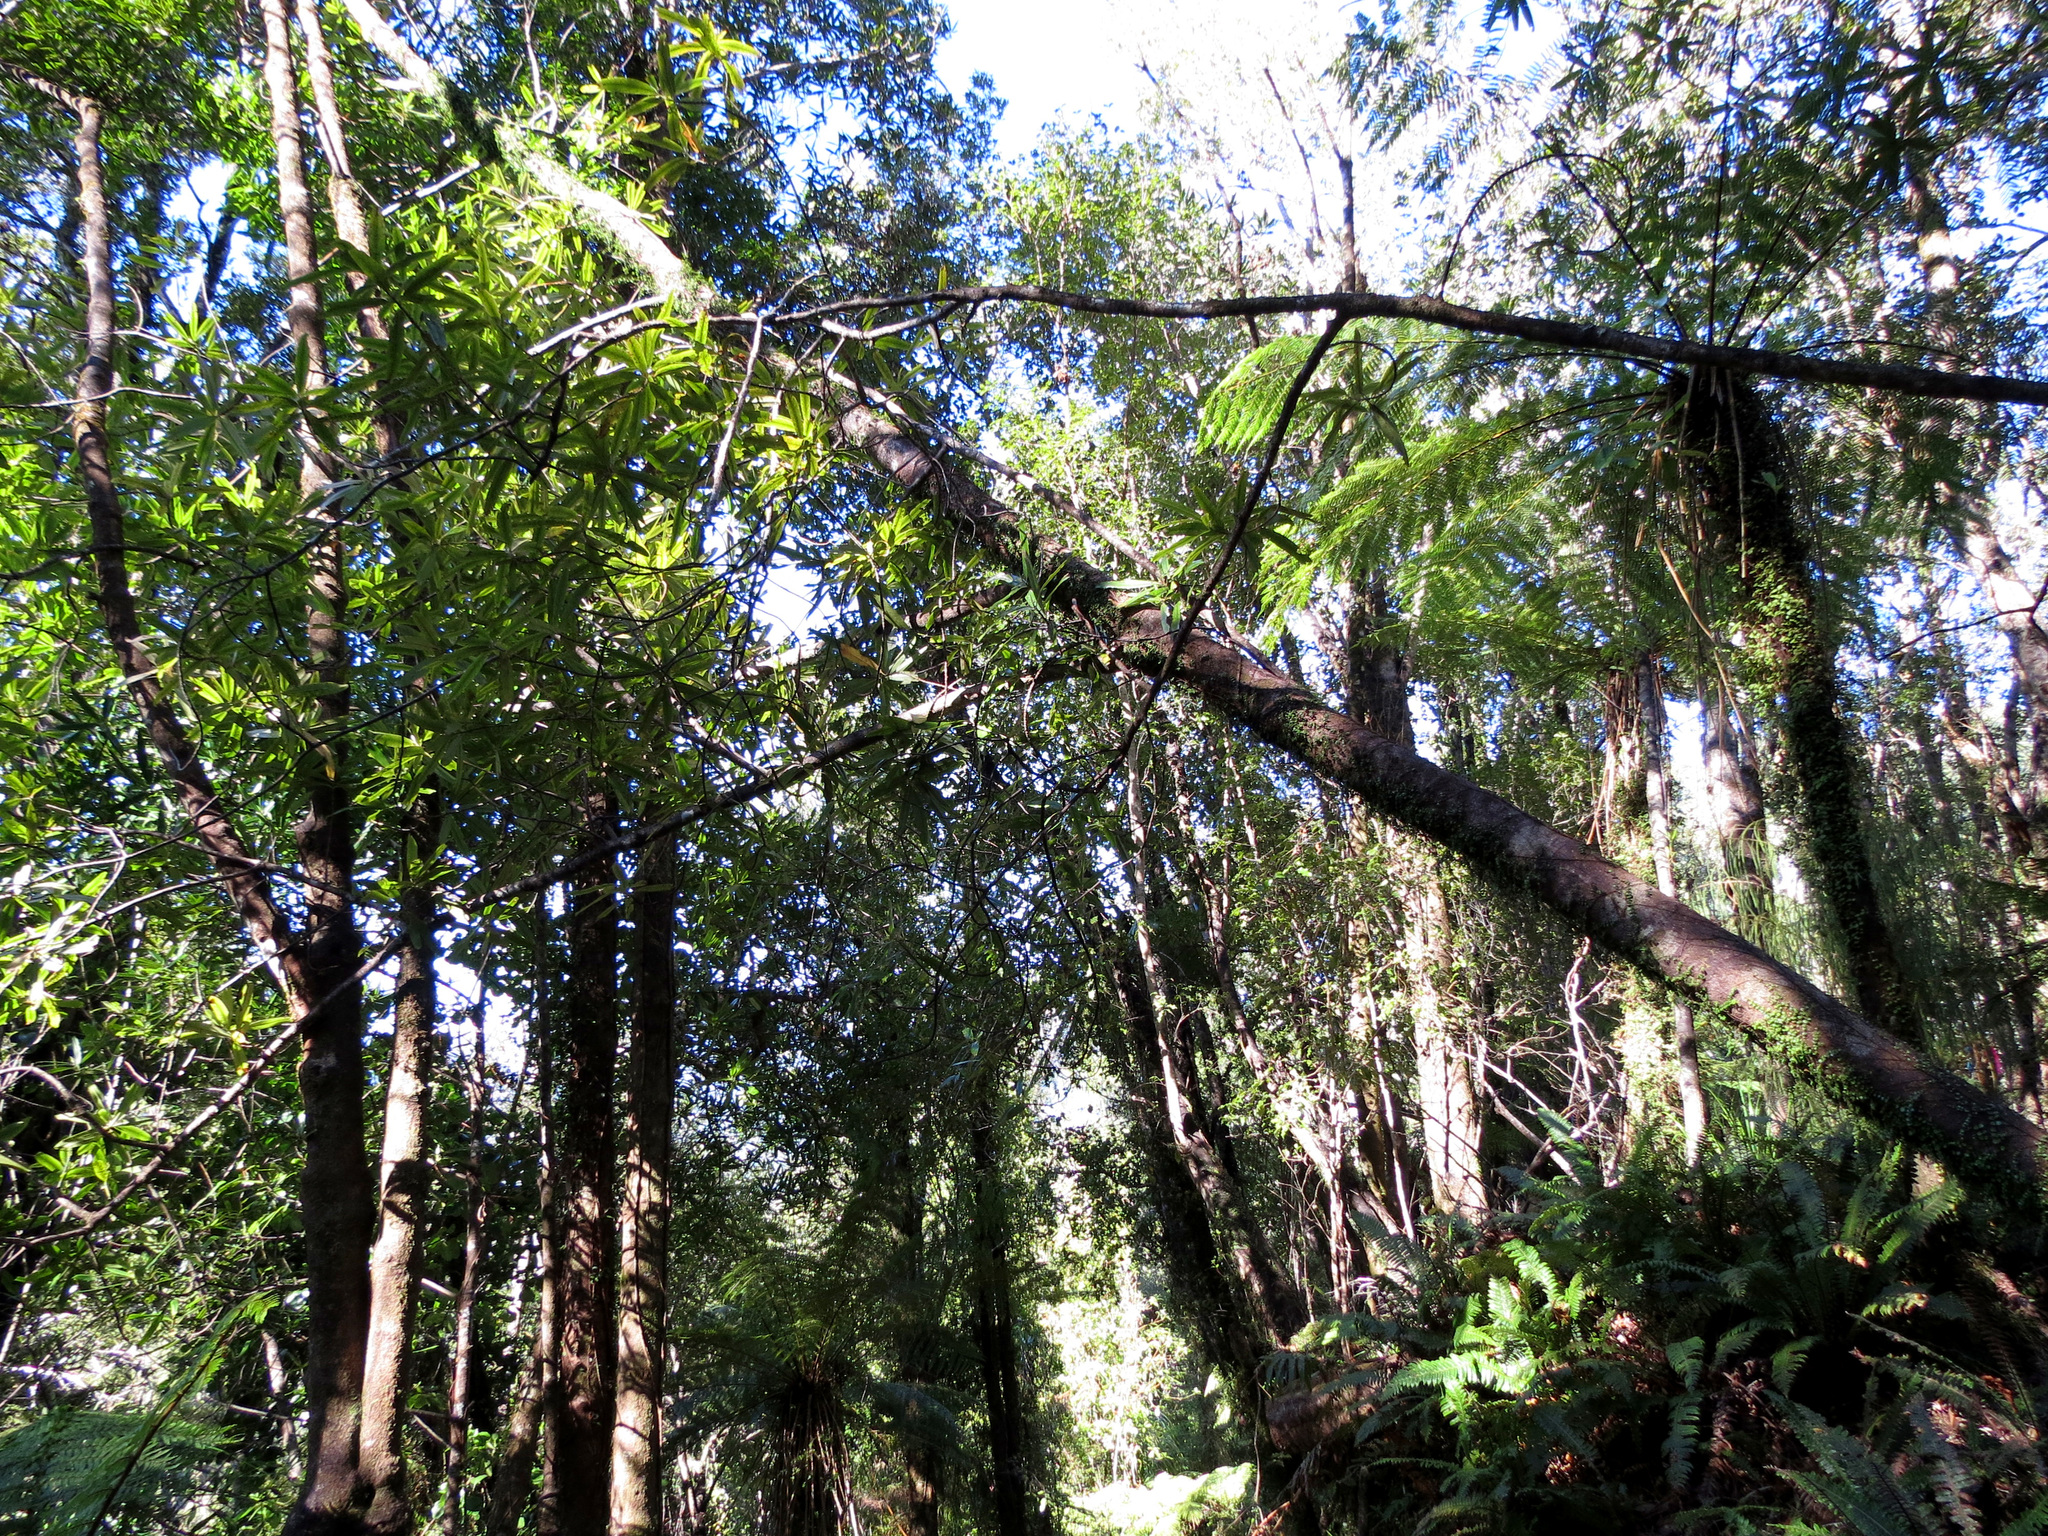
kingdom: Plantae
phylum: Tracheophyta
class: Magnoliopsida
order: Ericales
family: Primulaceae
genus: Myrsine
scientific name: Myrsine salicina
